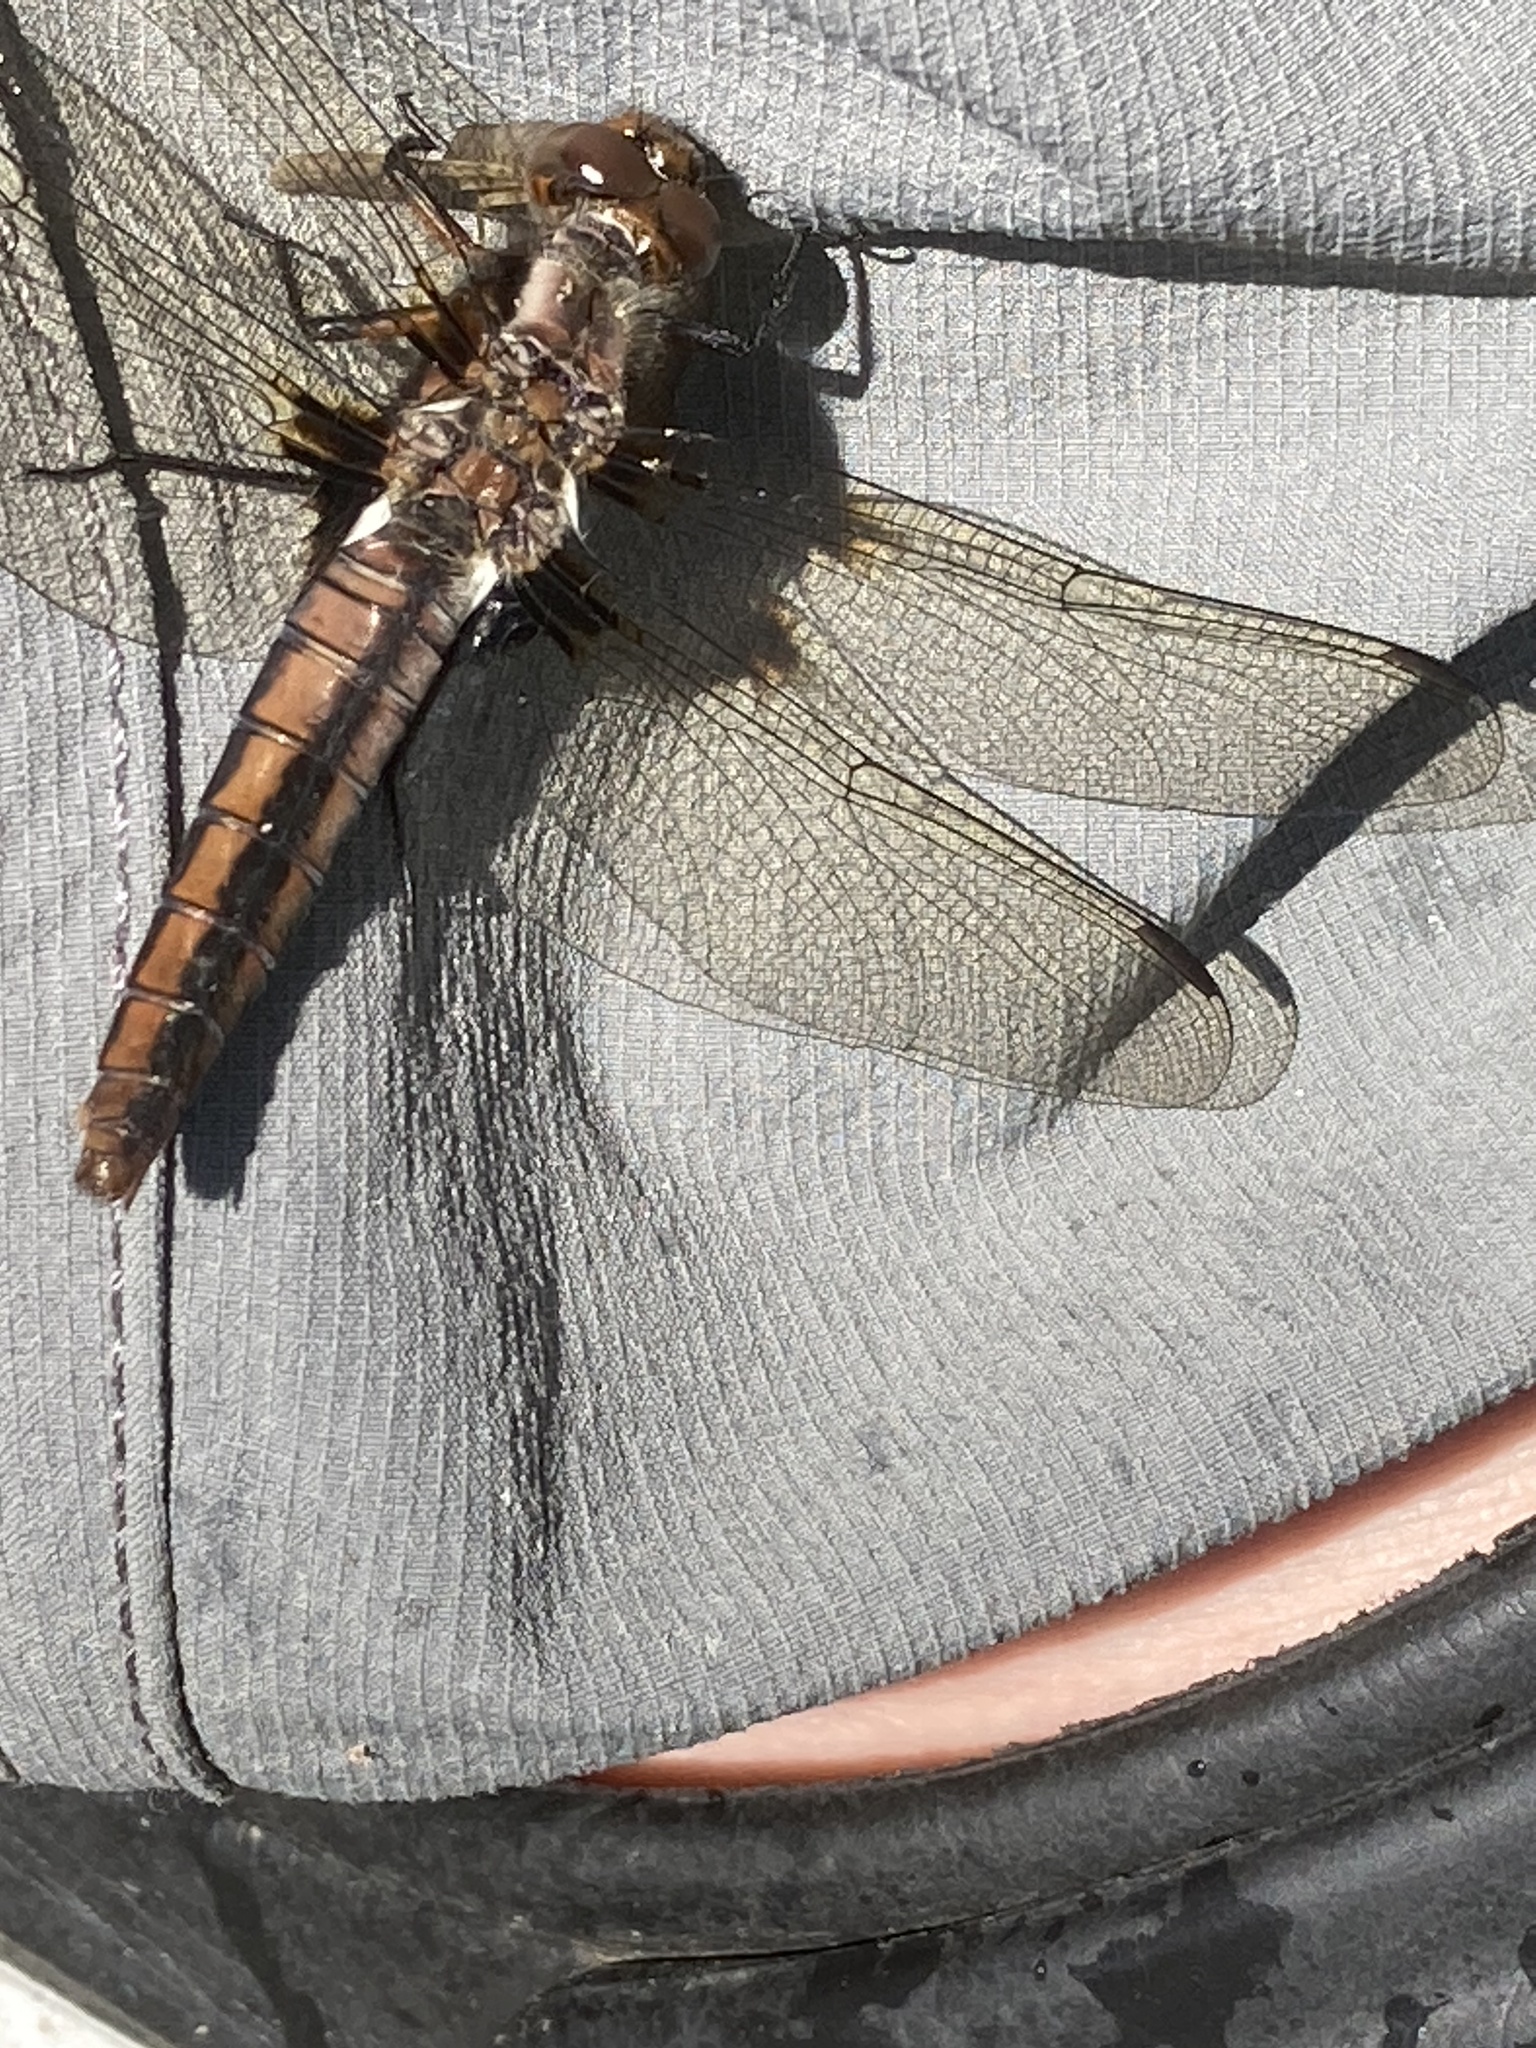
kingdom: Animalia
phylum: Arthropoda
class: Insecta
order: Odonata
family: Libellulidae
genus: Ladona
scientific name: Ladona julia
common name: Chalk-fronted corporal
